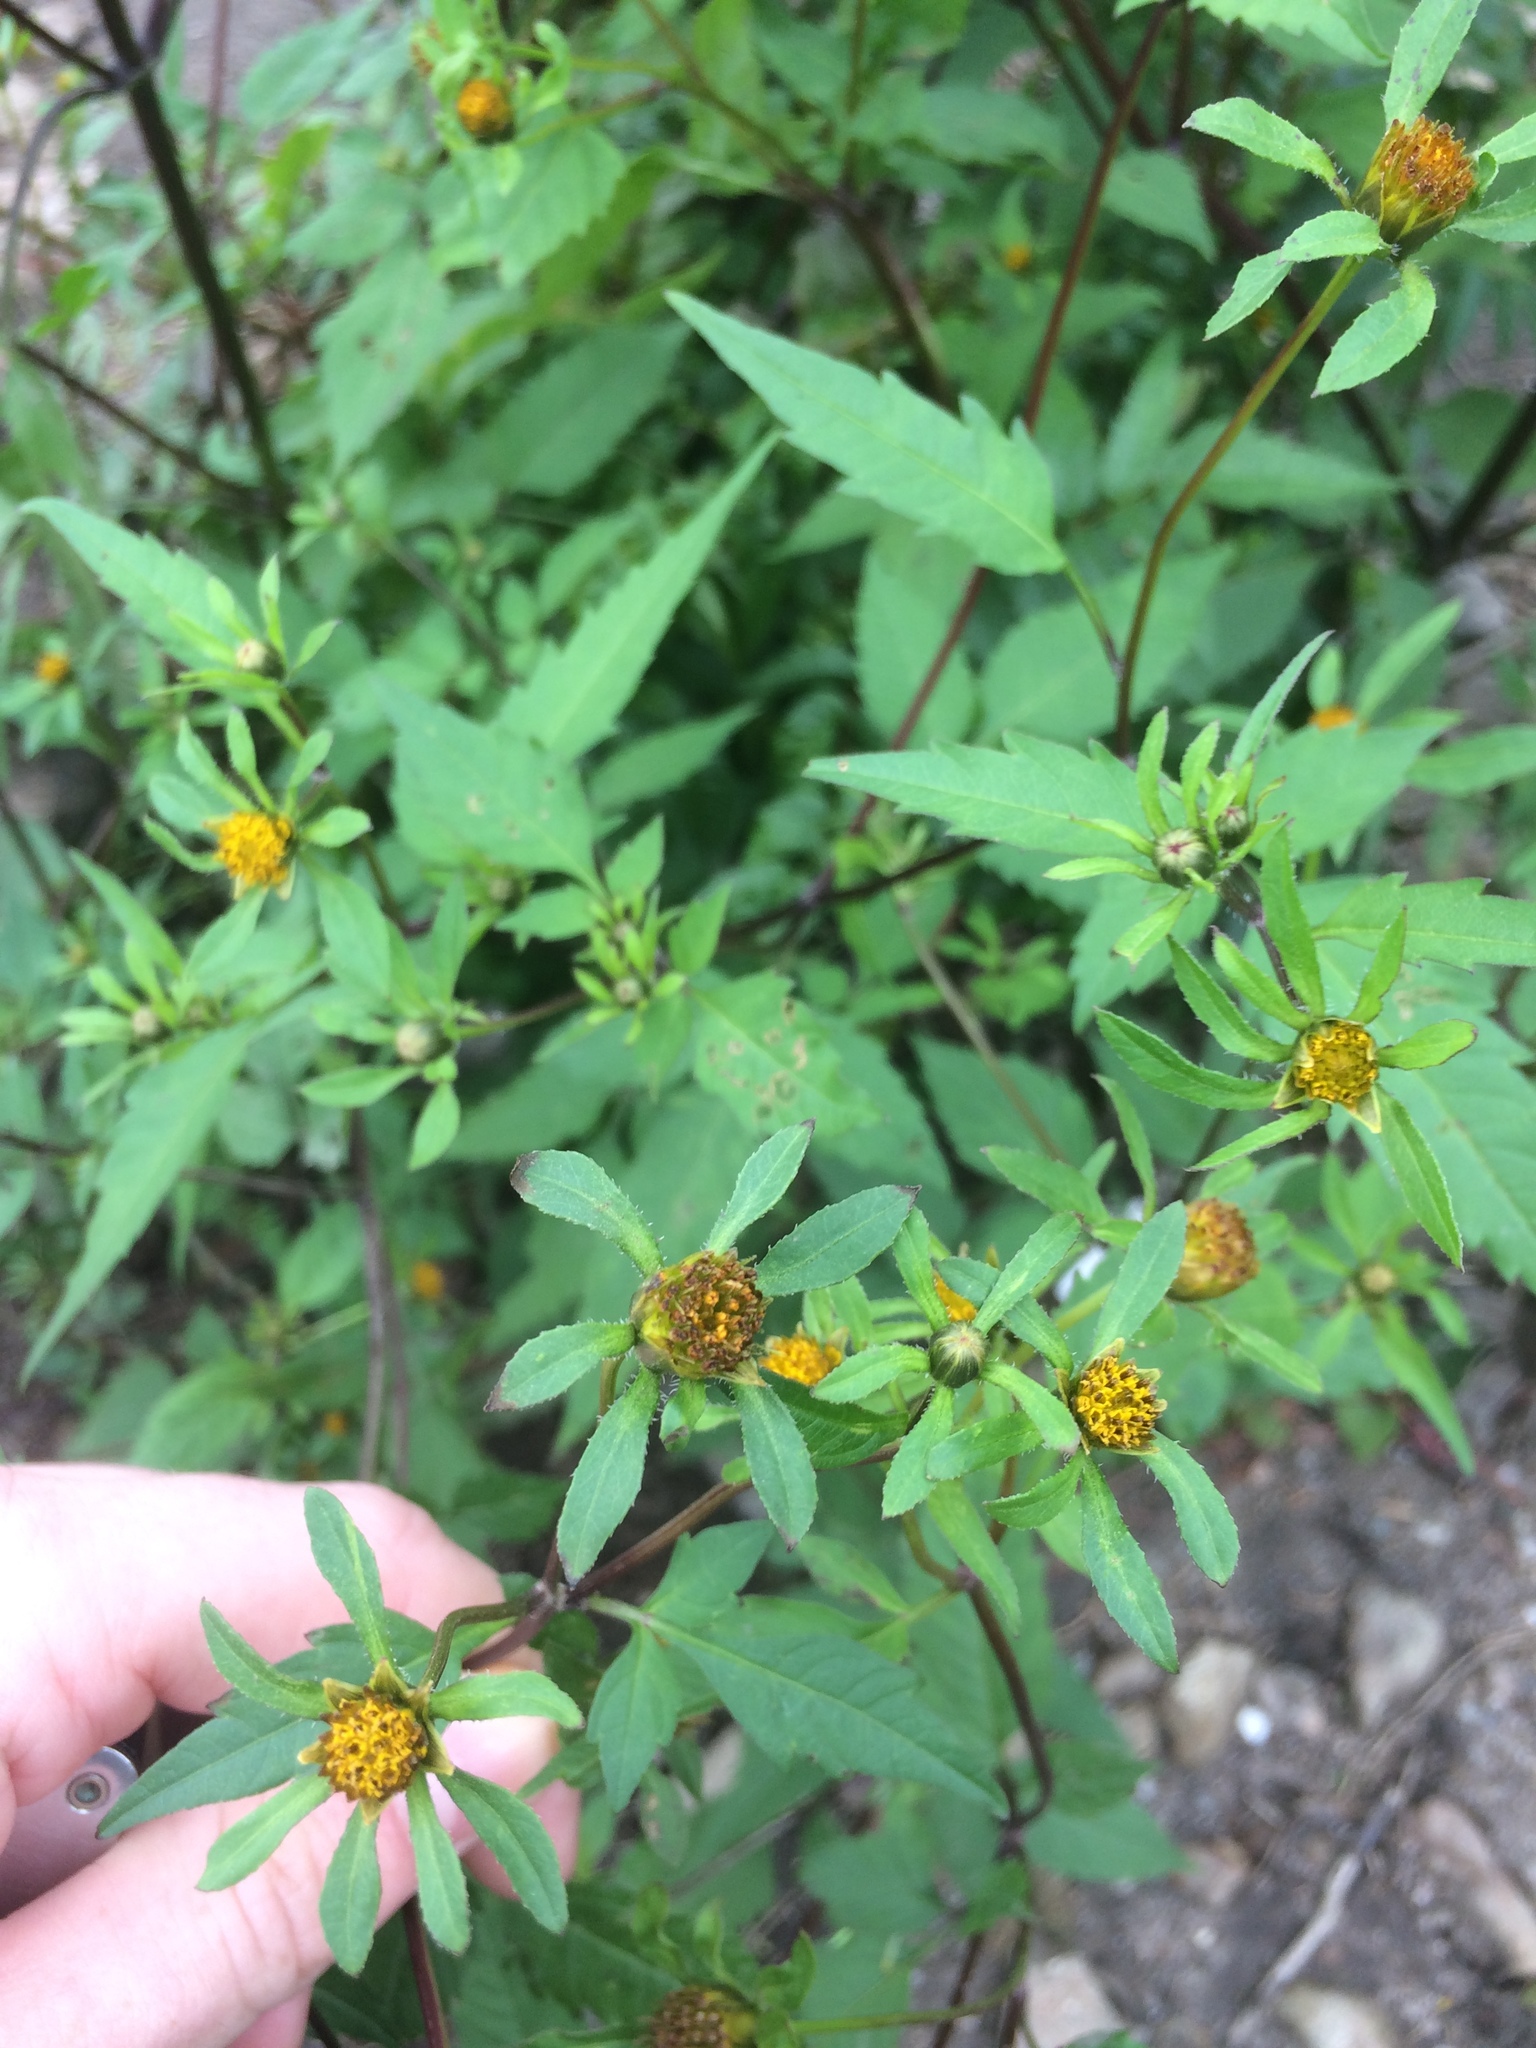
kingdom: Plantae
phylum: Tracheophyta
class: Magnoliopsida
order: Asterales
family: Asteraceae
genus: Bidens
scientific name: Bidens frondosa
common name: Beggarticks
